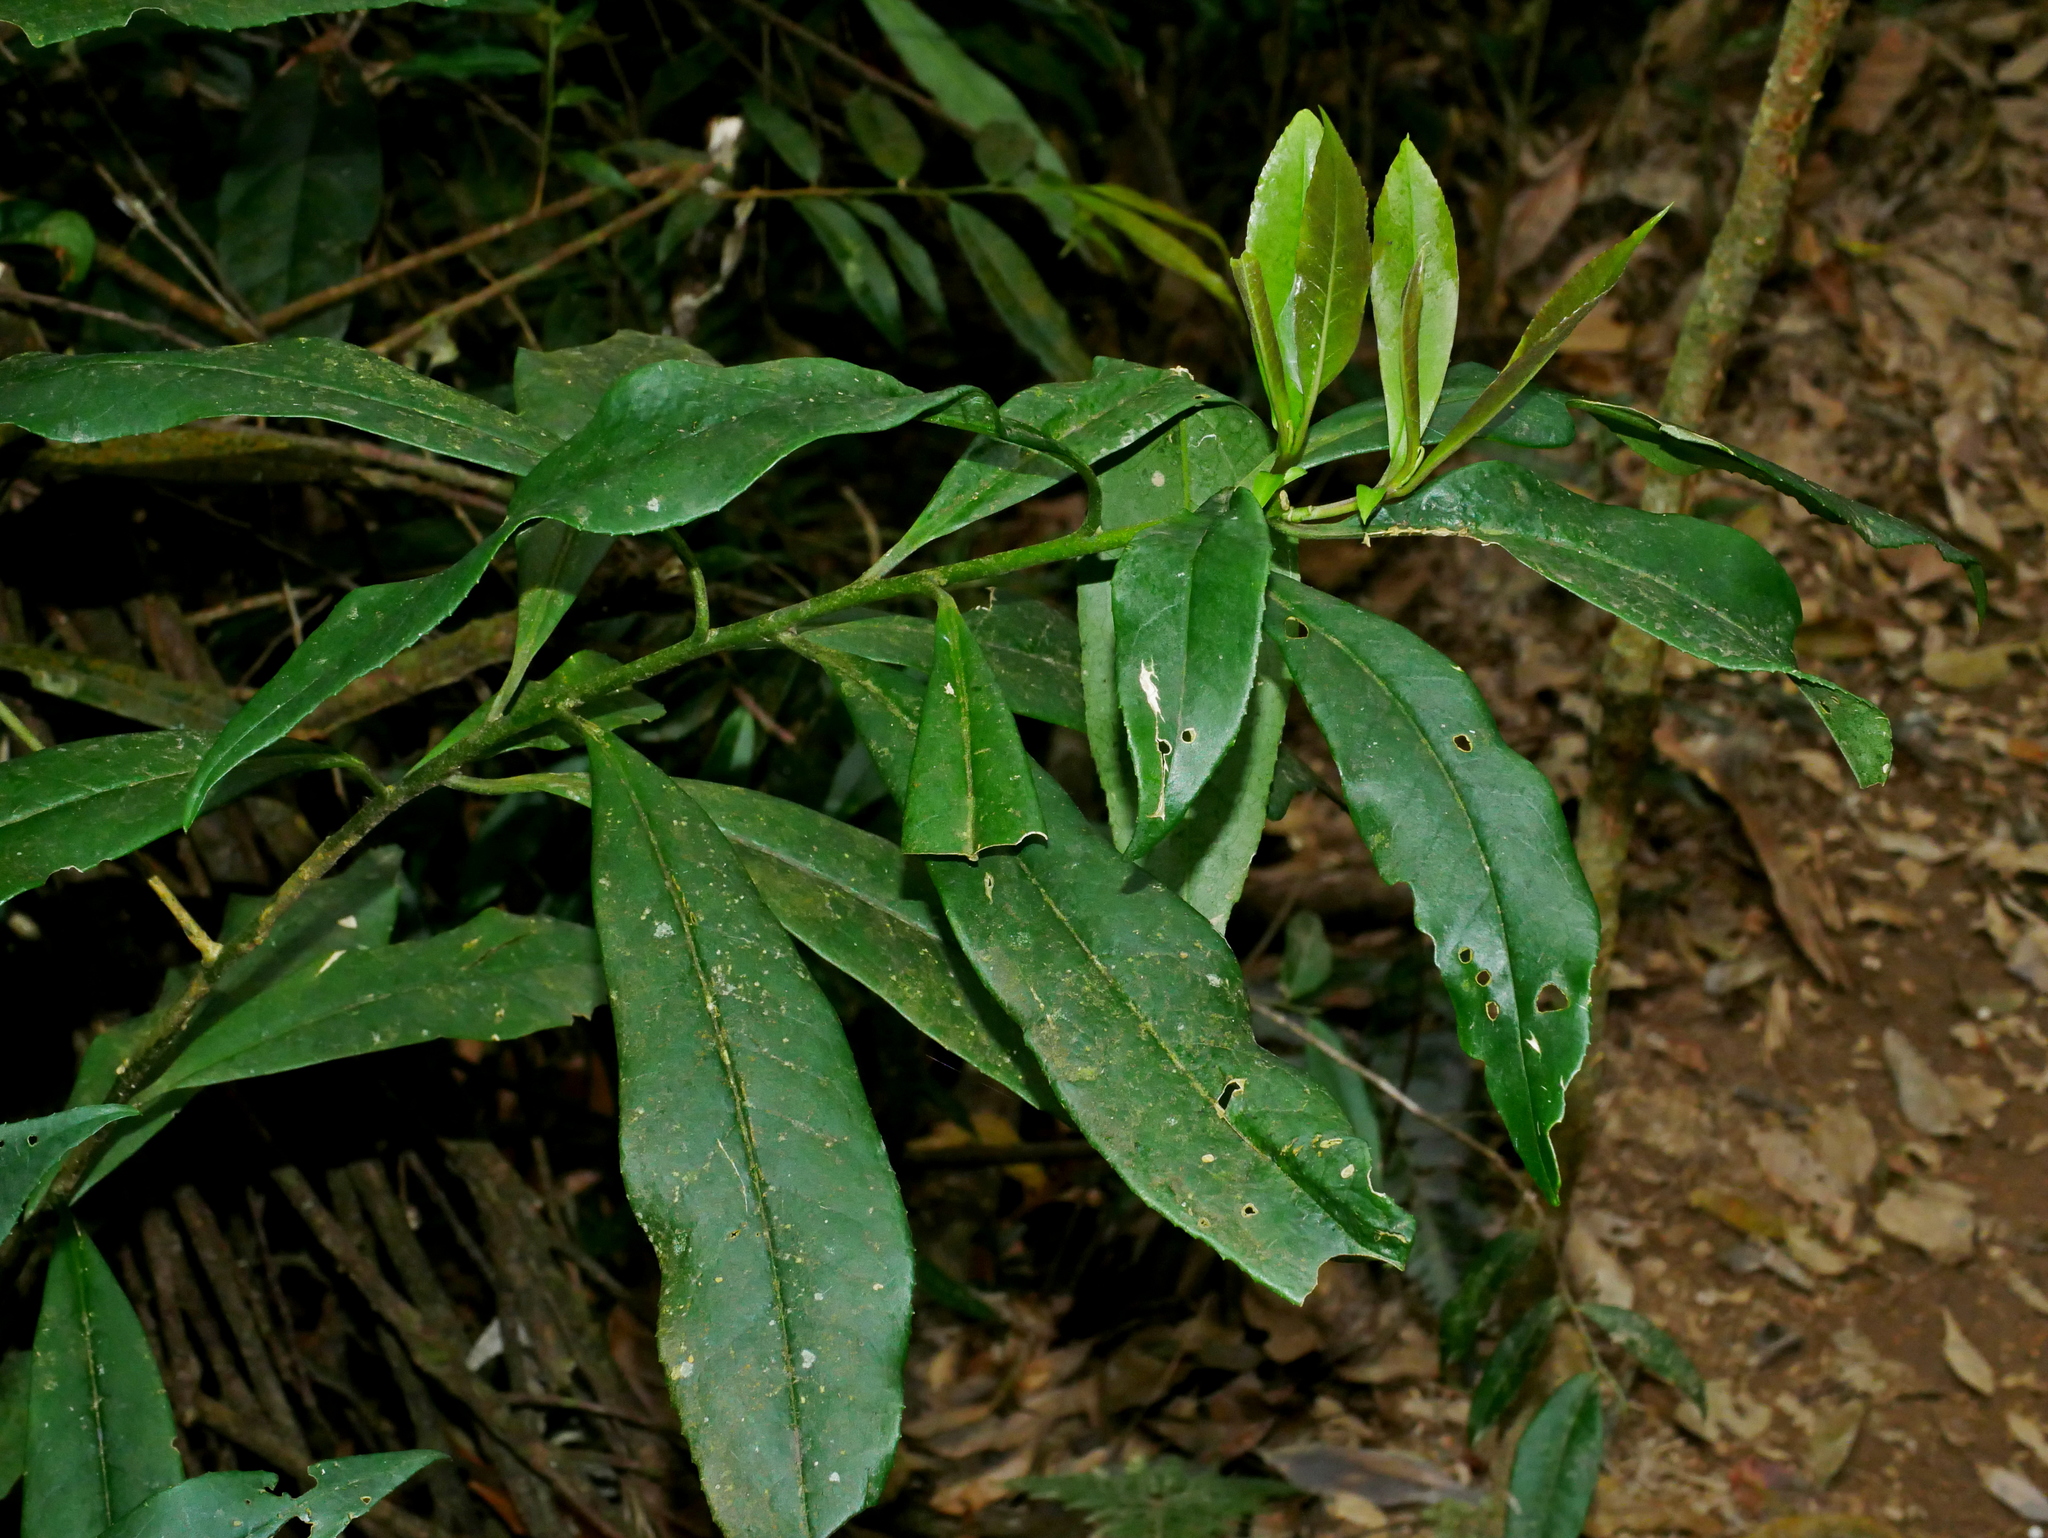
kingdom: Plantae
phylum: Tracheophyta
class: Magnoliopsida
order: Ericales
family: Symplocaceae
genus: Symplocos
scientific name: Symplocos wikstroemiifolia
